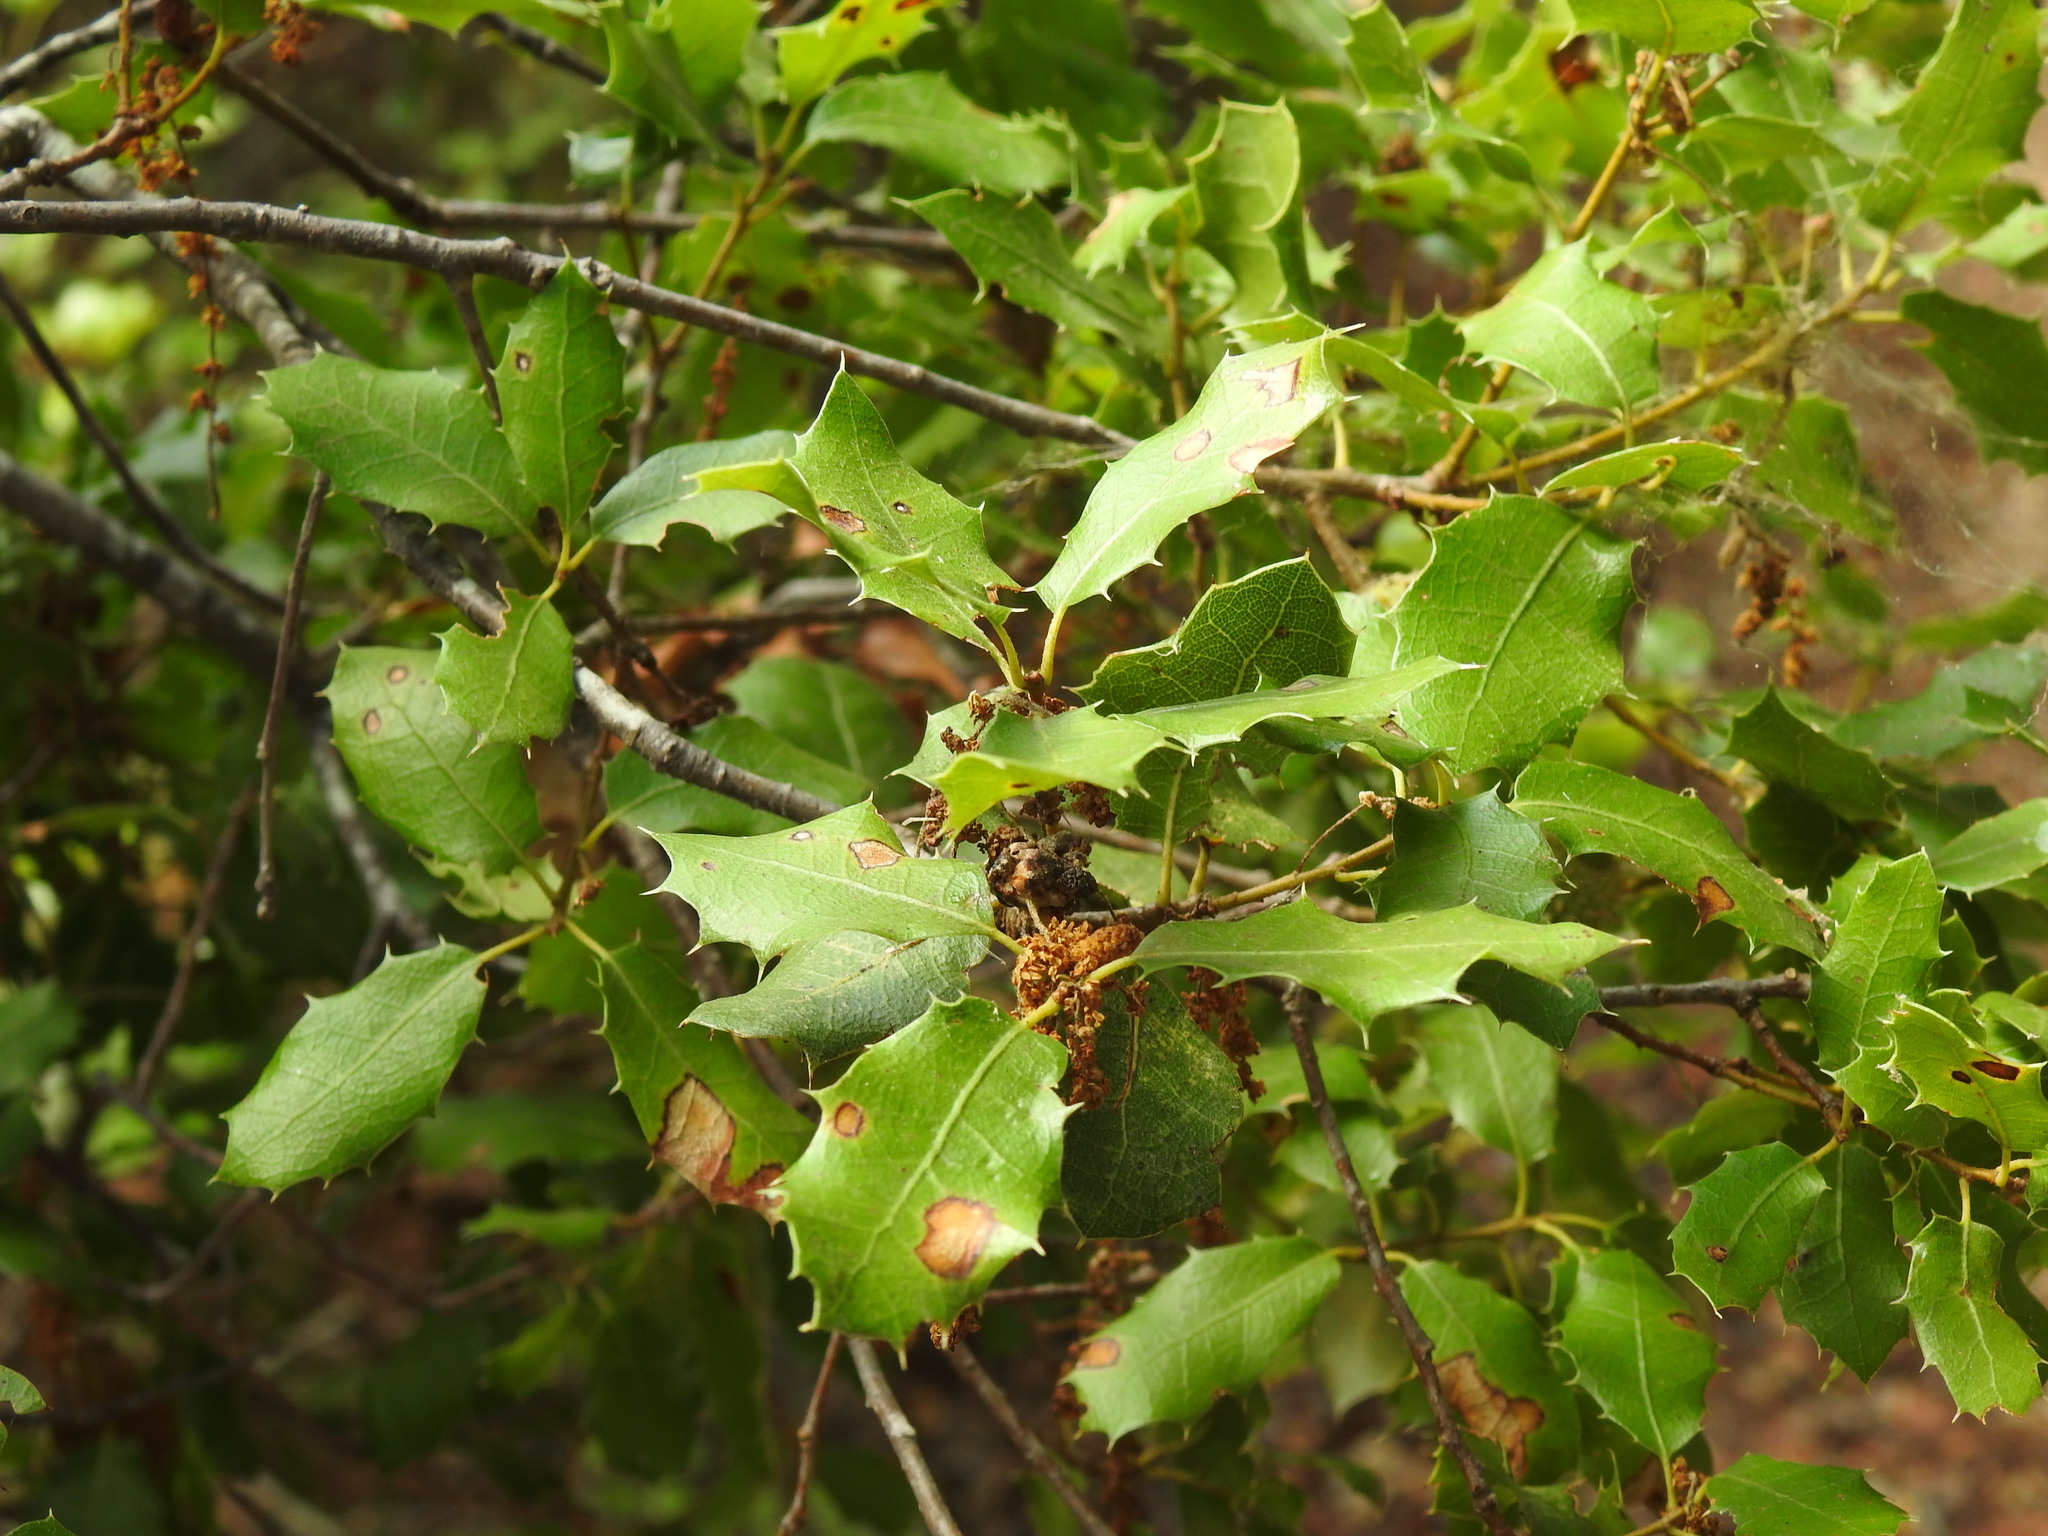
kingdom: Plantae
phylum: Tracheophyta
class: Magnoliopsida
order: Fagales
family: Fagaceae
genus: Quercus
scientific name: Quercus coccifera
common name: Kermes oak
